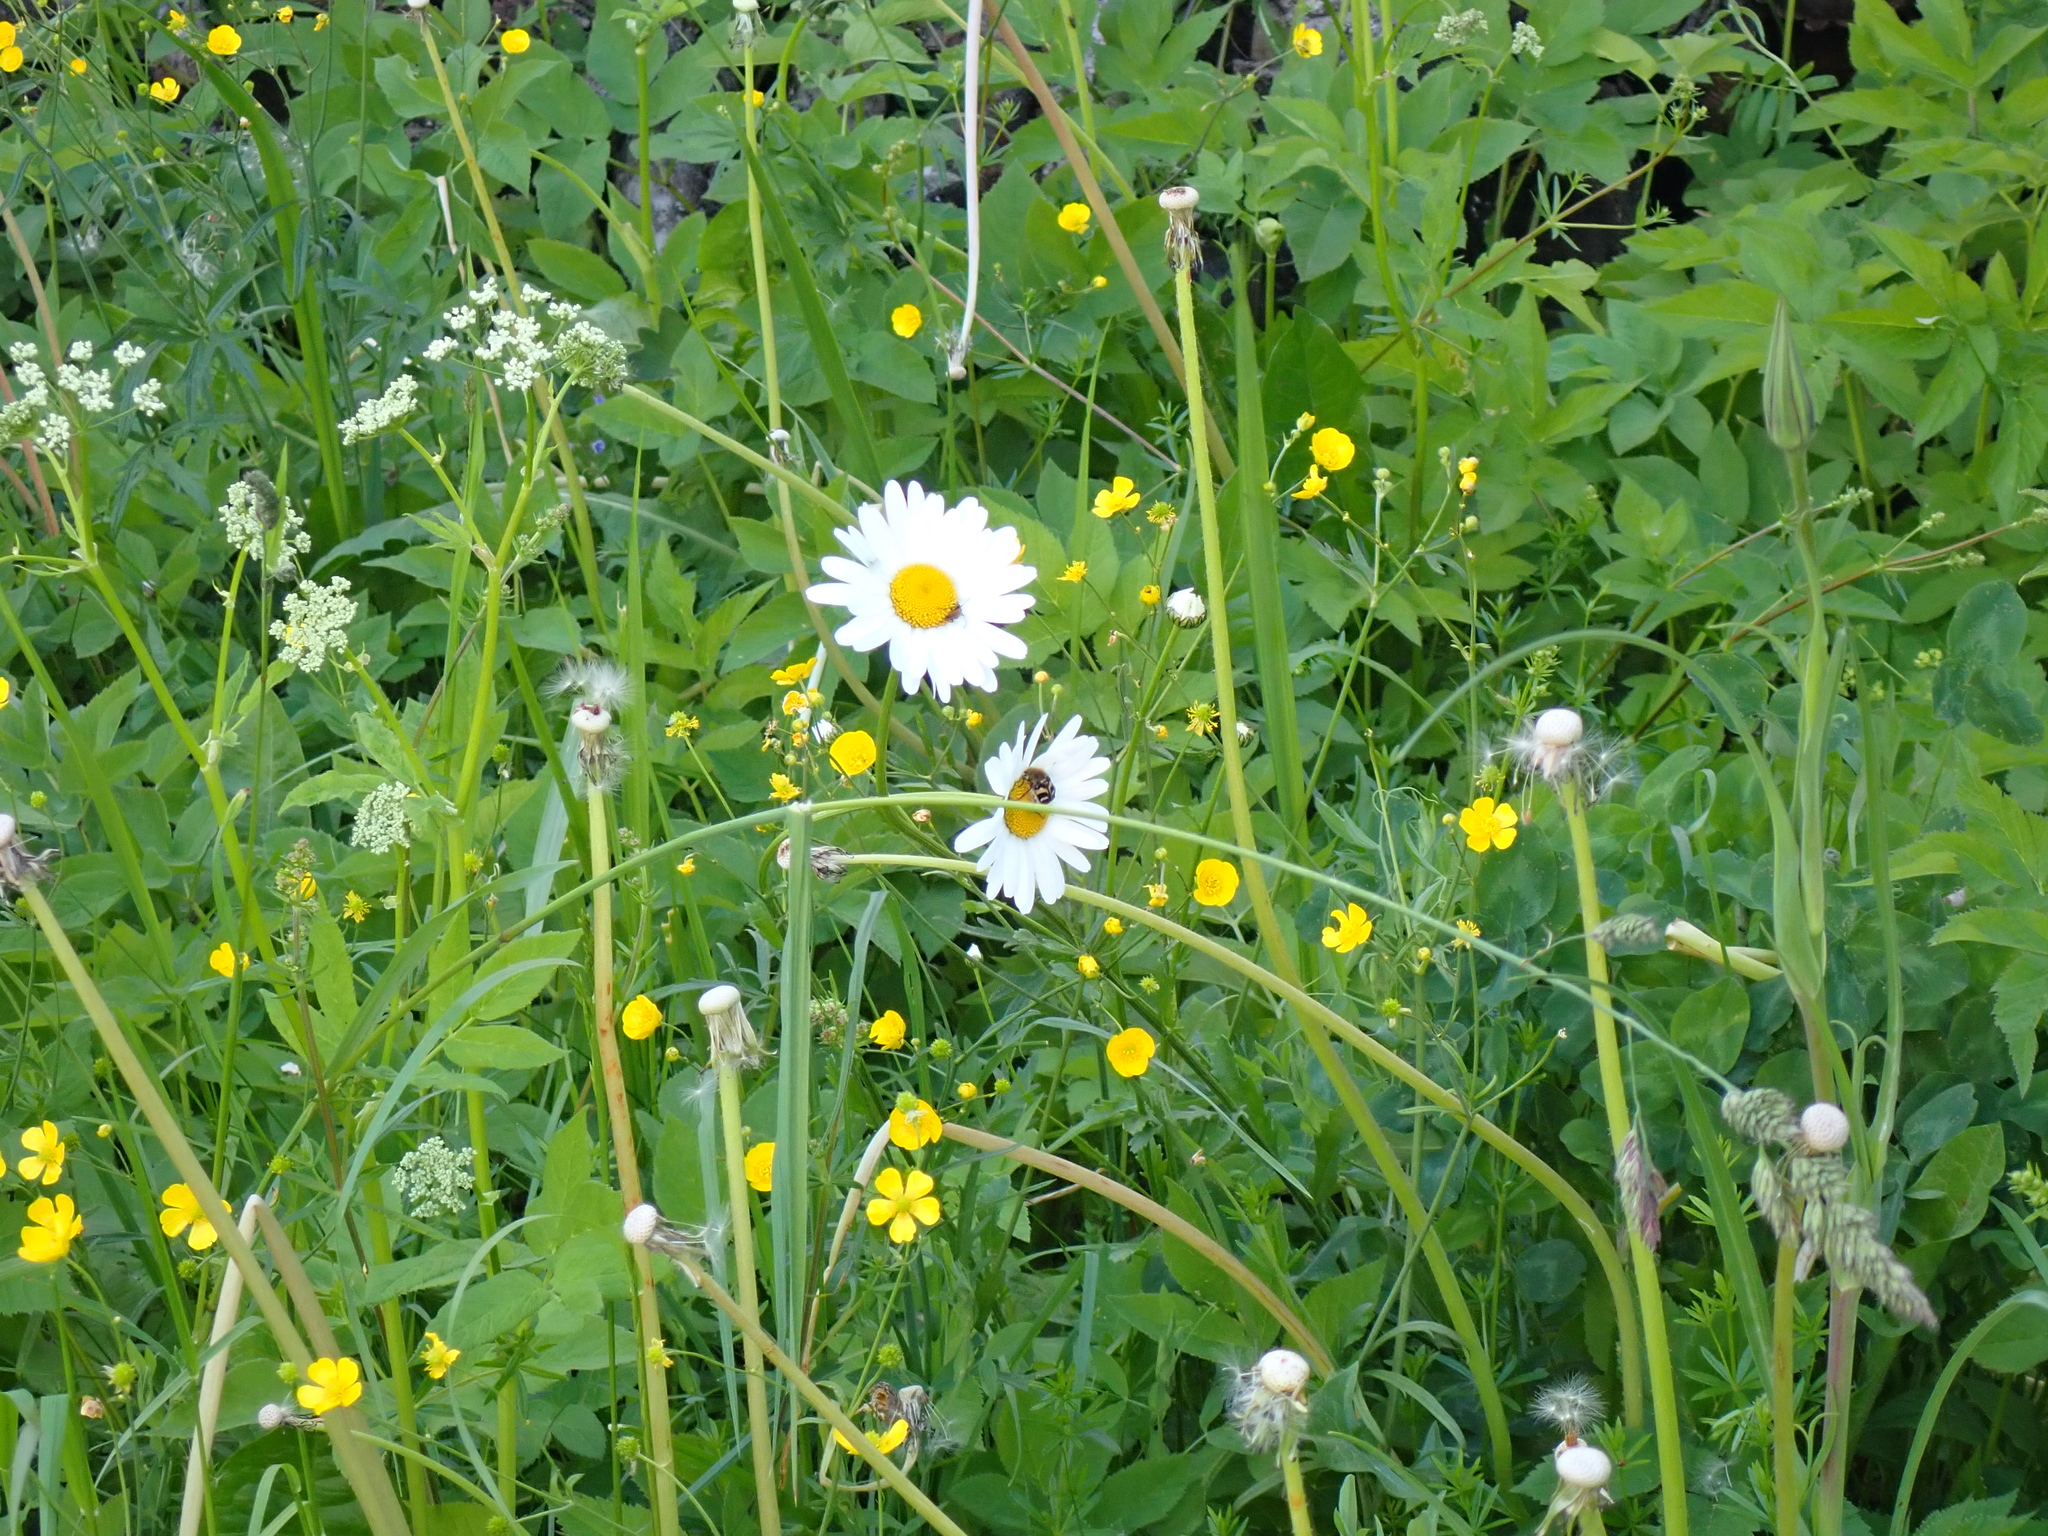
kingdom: Animalia
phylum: Arthropoda
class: Insecta
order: Coleoptera
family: Scarabaeidae
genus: Trichius
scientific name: Trichius fasciatus
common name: Bee beetle
